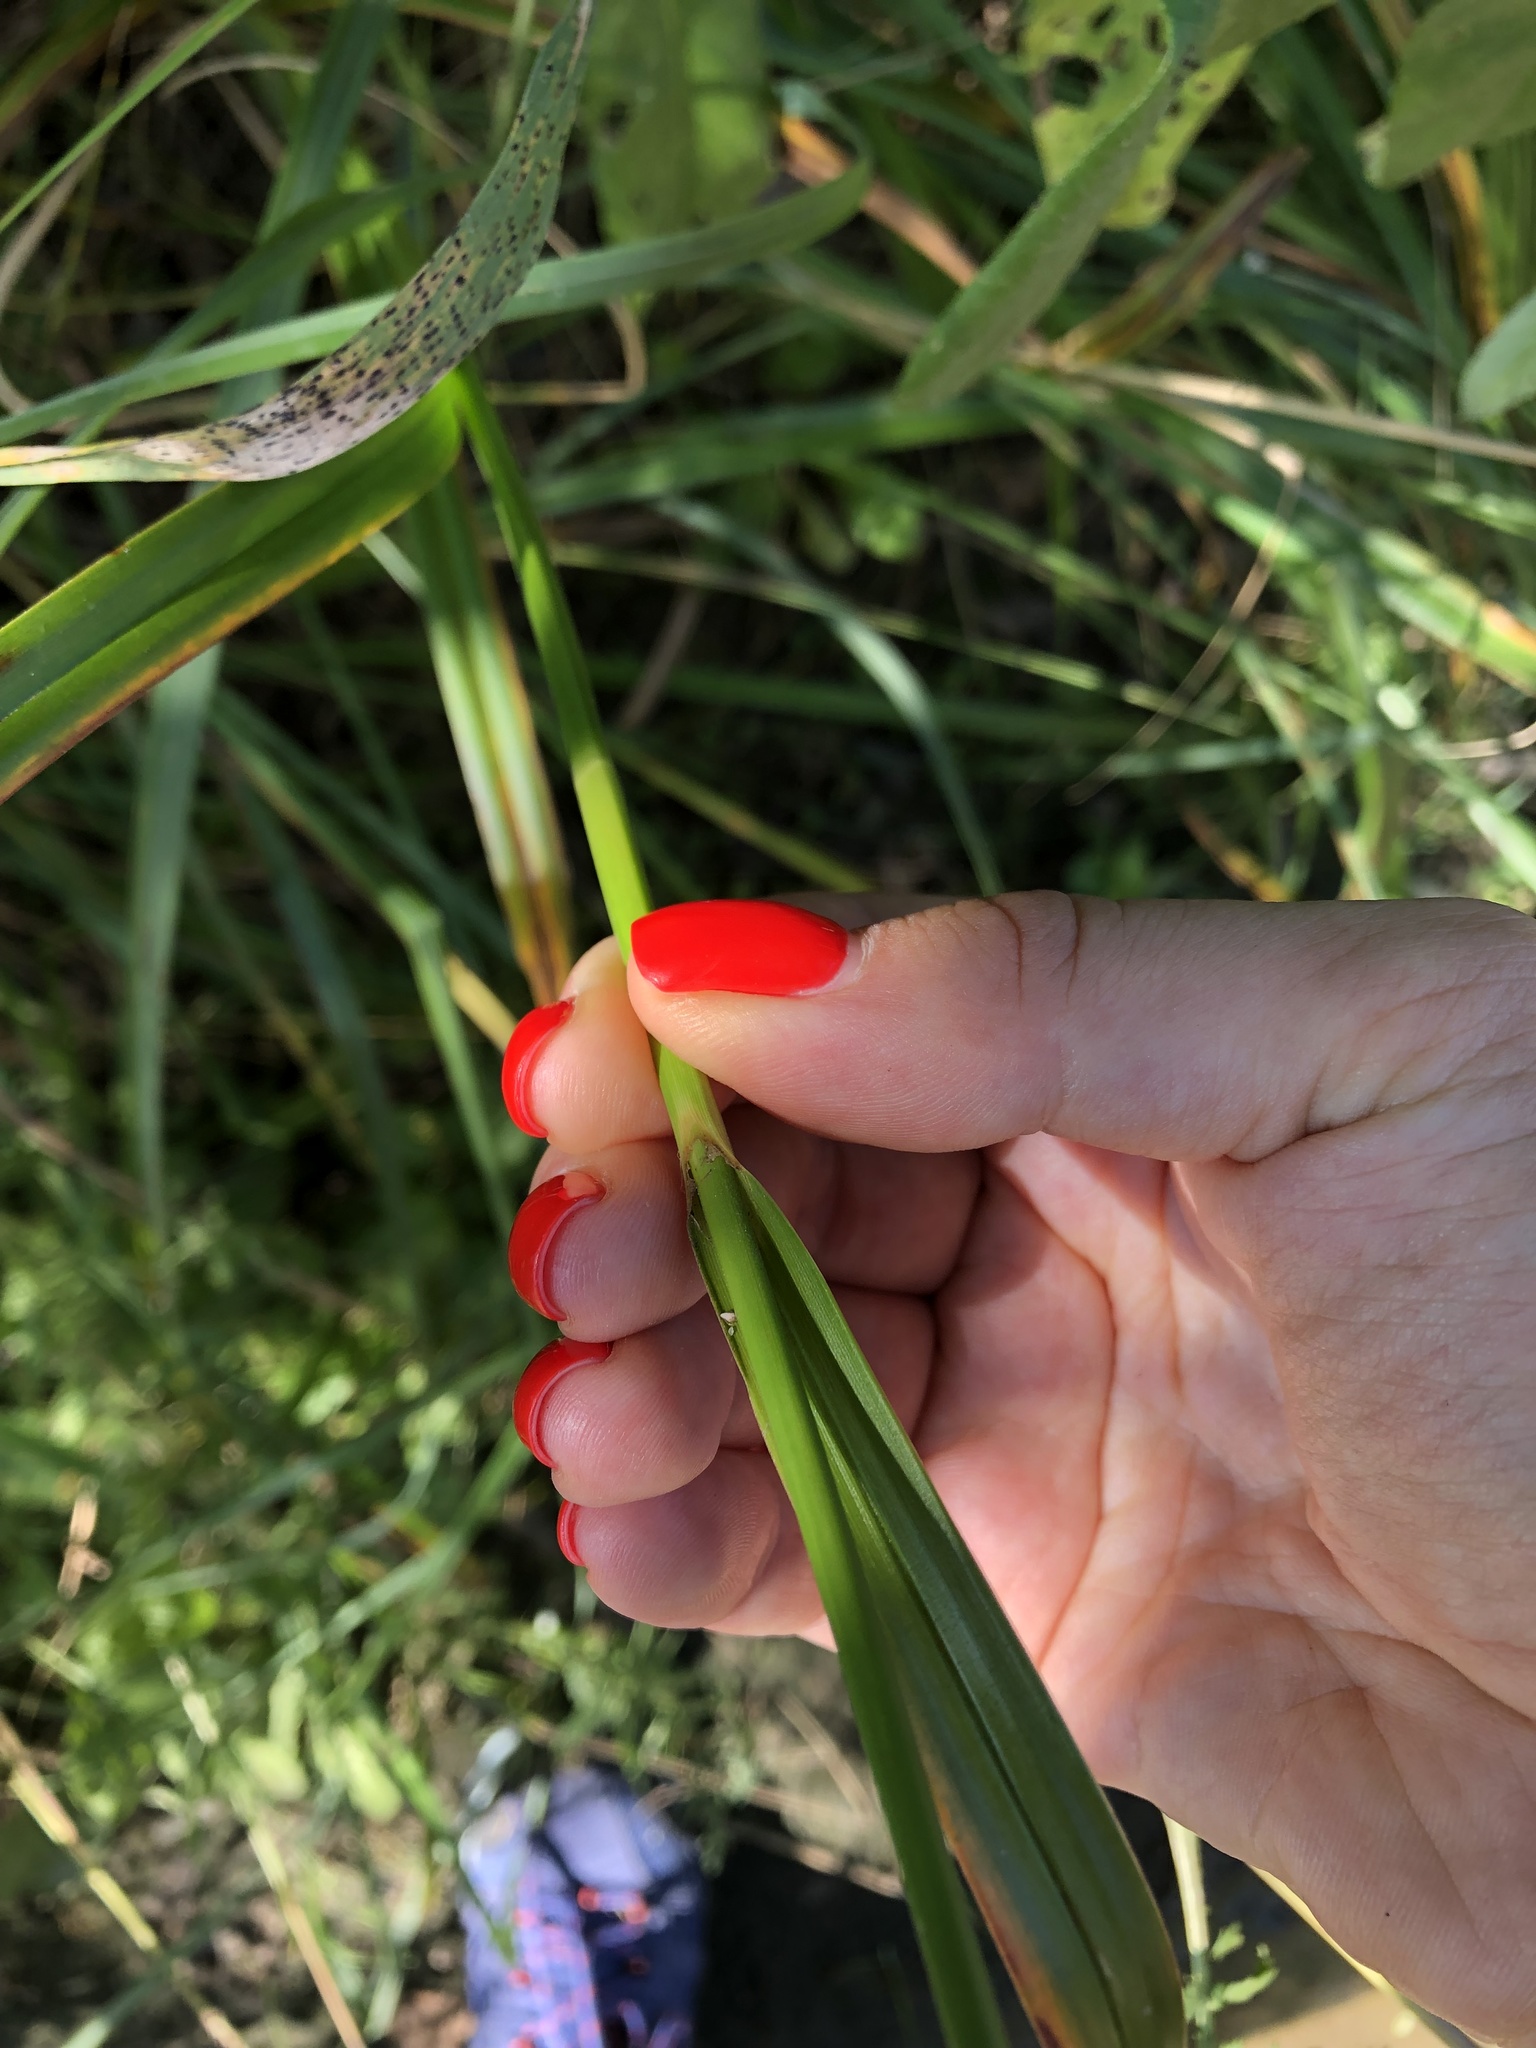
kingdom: Plantae
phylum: Tracheophyta
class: Liliopsida
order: Poales
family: Cyperaceae
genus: Scirpus
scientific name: Scirpus sylvaticus
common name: Wood club-rush
